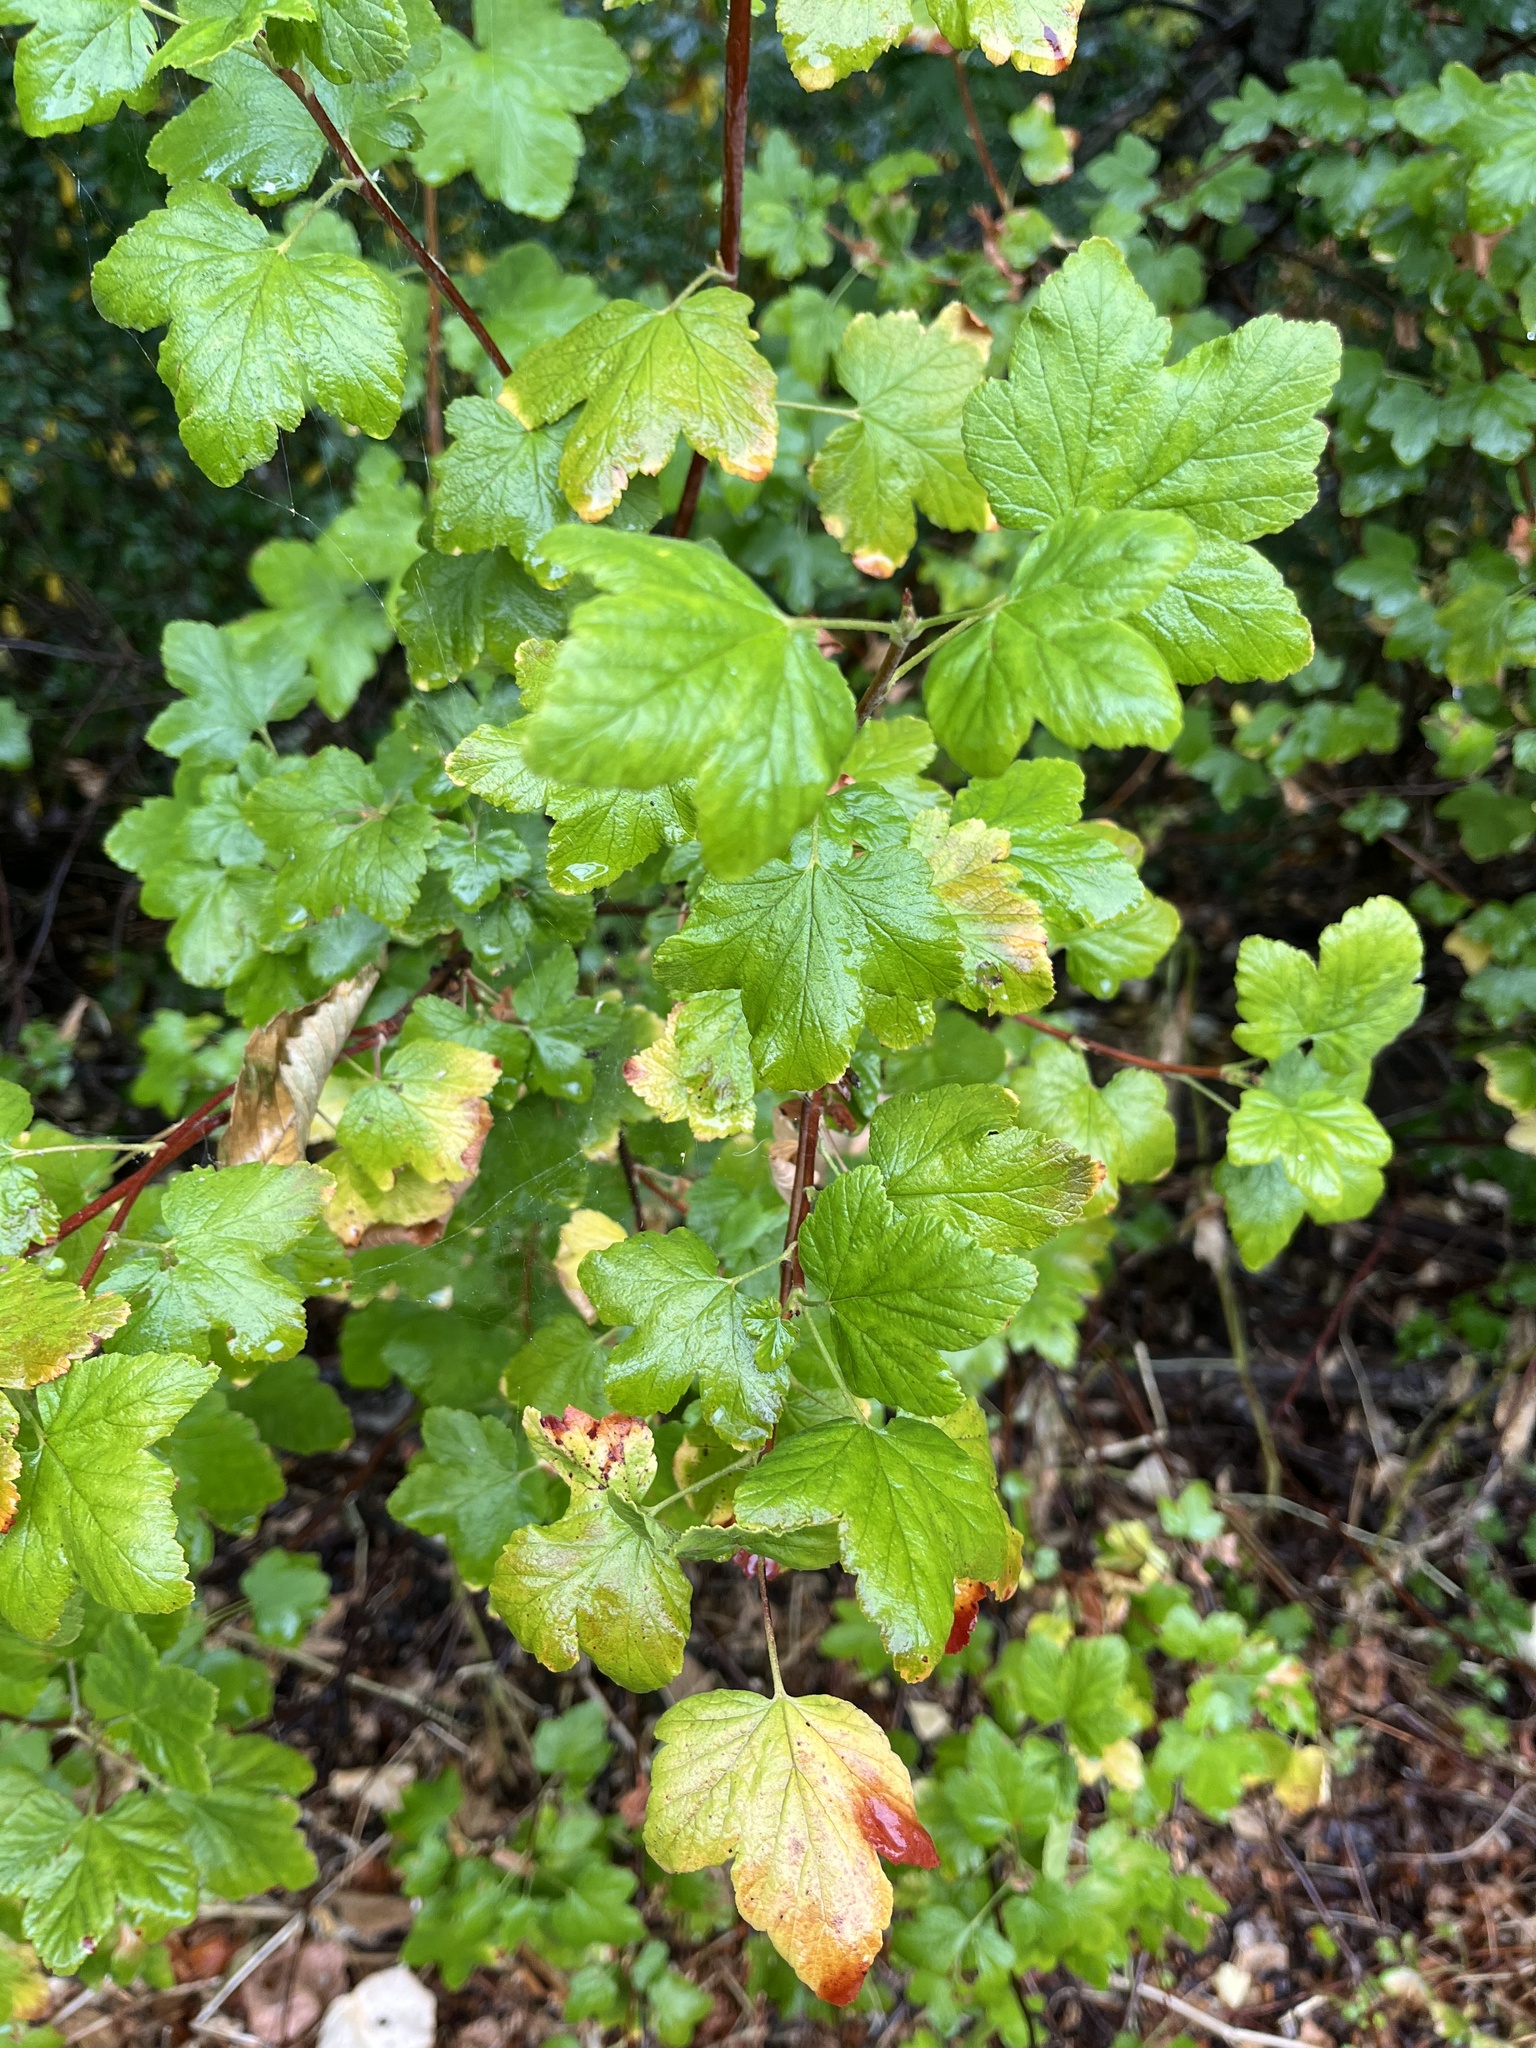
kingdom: Plantae
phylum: Tracheophyta
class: Magnoliopsida
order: Saxifragales
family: Grossulariaceae
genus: Ribes
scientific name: Ribes sanguineum
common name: Flowering currant
